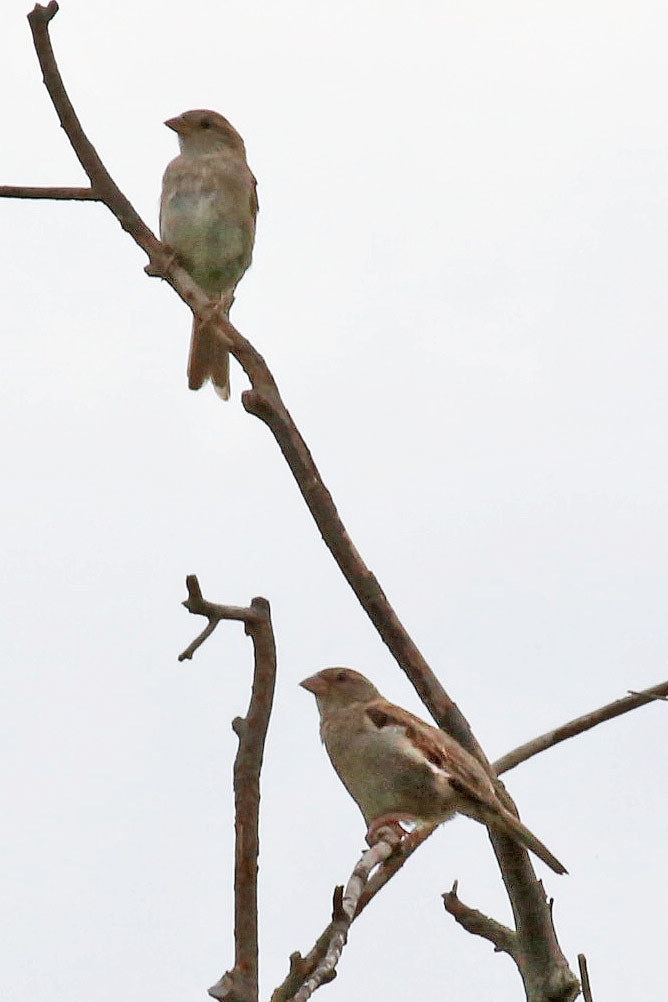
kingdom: Animalia
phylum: Chordata
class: Aves
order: Passeriformes
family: Passeridae
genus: Passer
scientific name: Passer domesticus
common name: House sparrow
